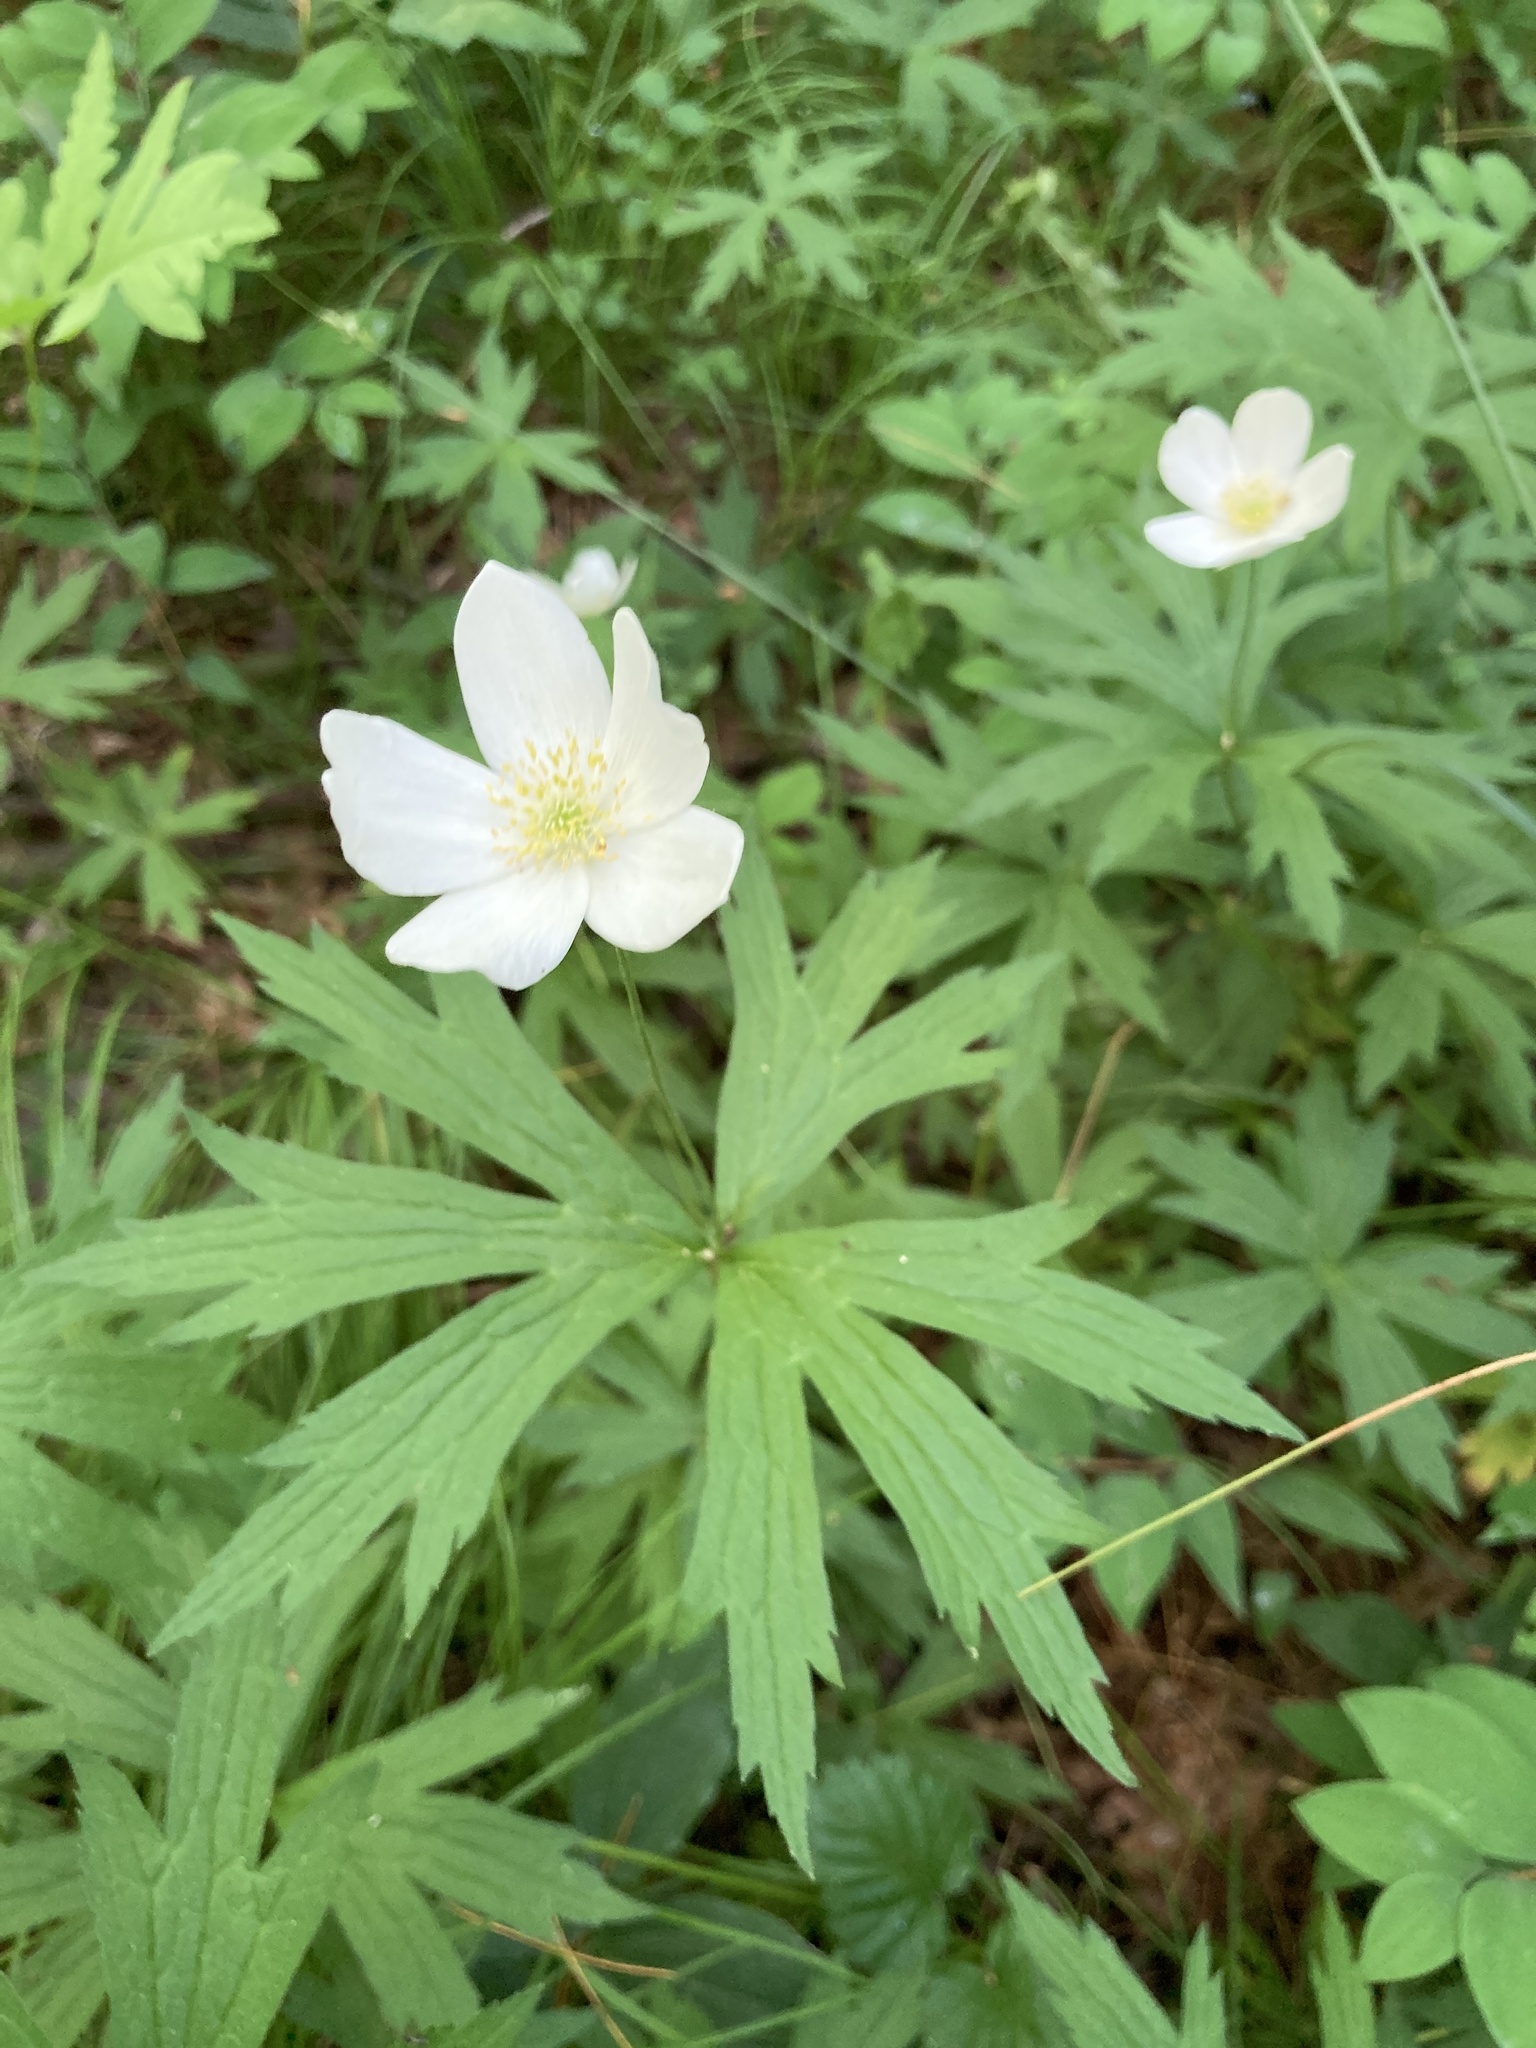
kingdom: Plantae
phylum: Tracheophyta
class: Magnoliopsida
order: Ranunculales
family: Ranunculaceae
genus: Anemonastrum
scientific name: Anemonastrum canadense
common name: Canada anemone
